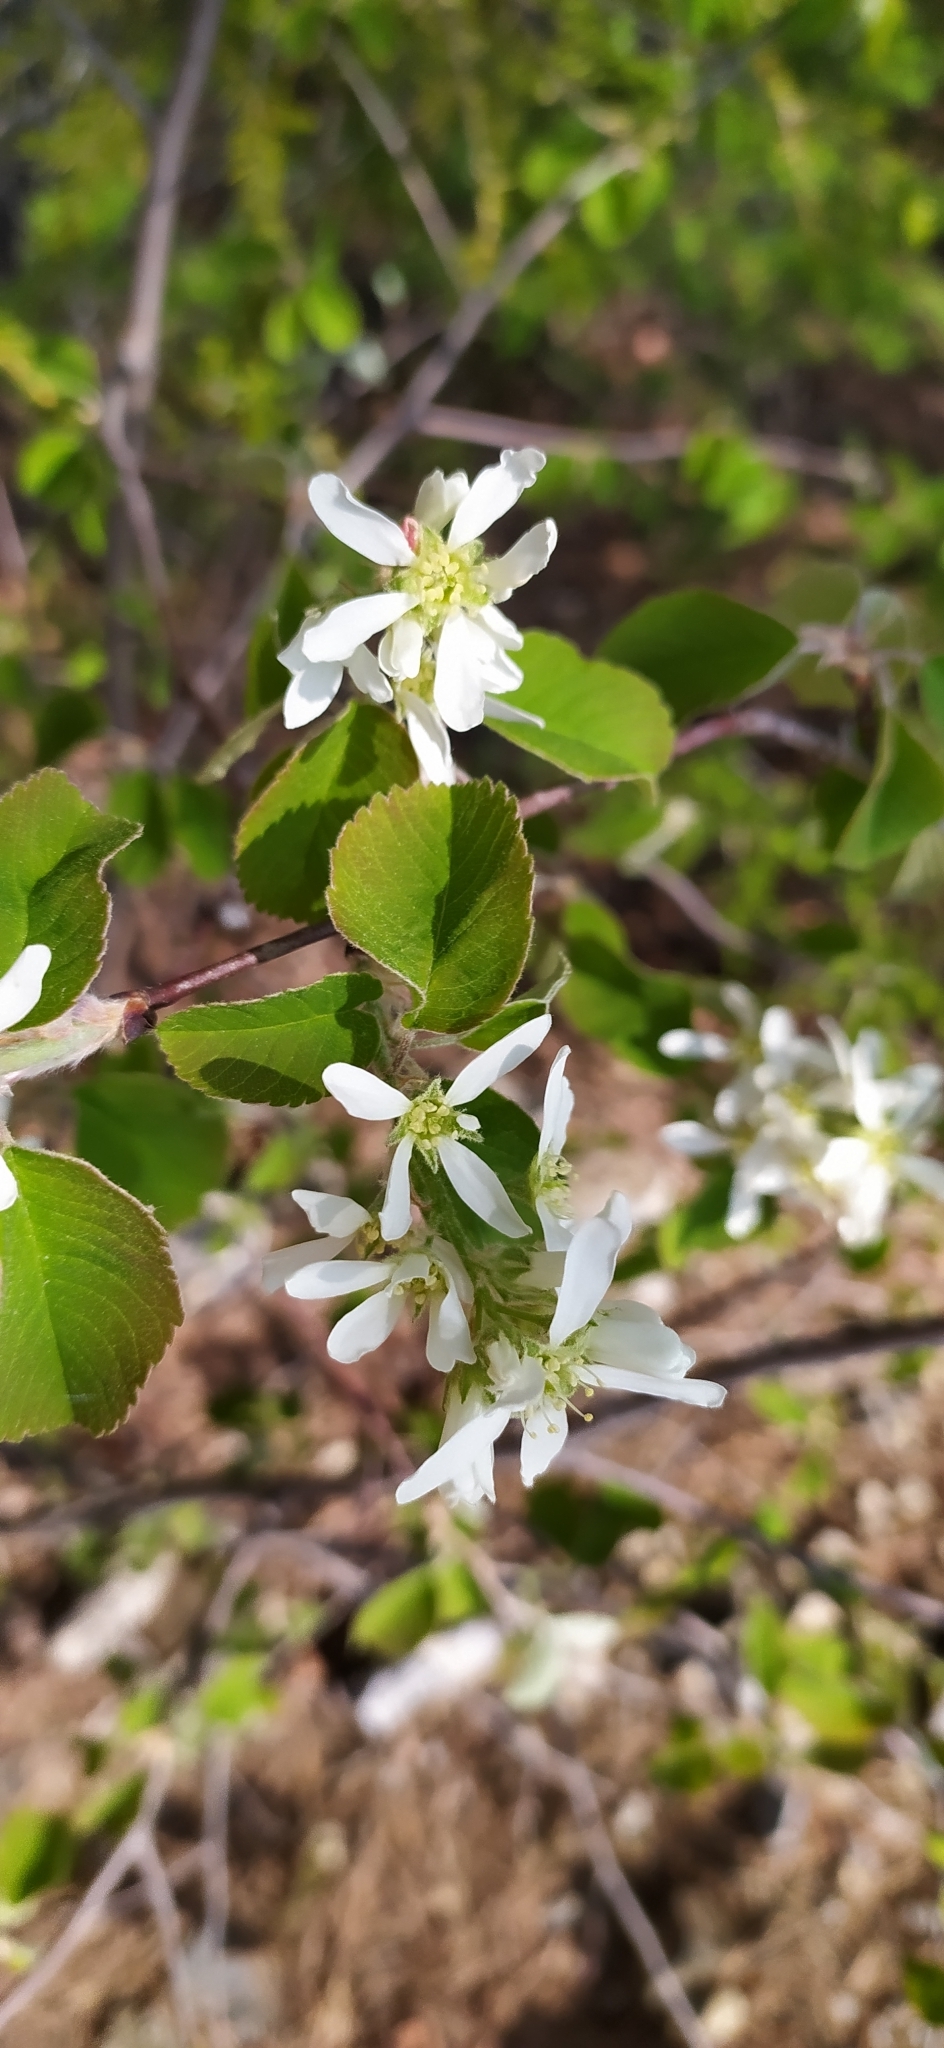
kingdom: Plantae
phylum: Tracheophyta
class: Magnoliopsida
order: Rosales
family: Rosaceae
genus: Amelanchier
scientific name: Amelanchier alnifolia
